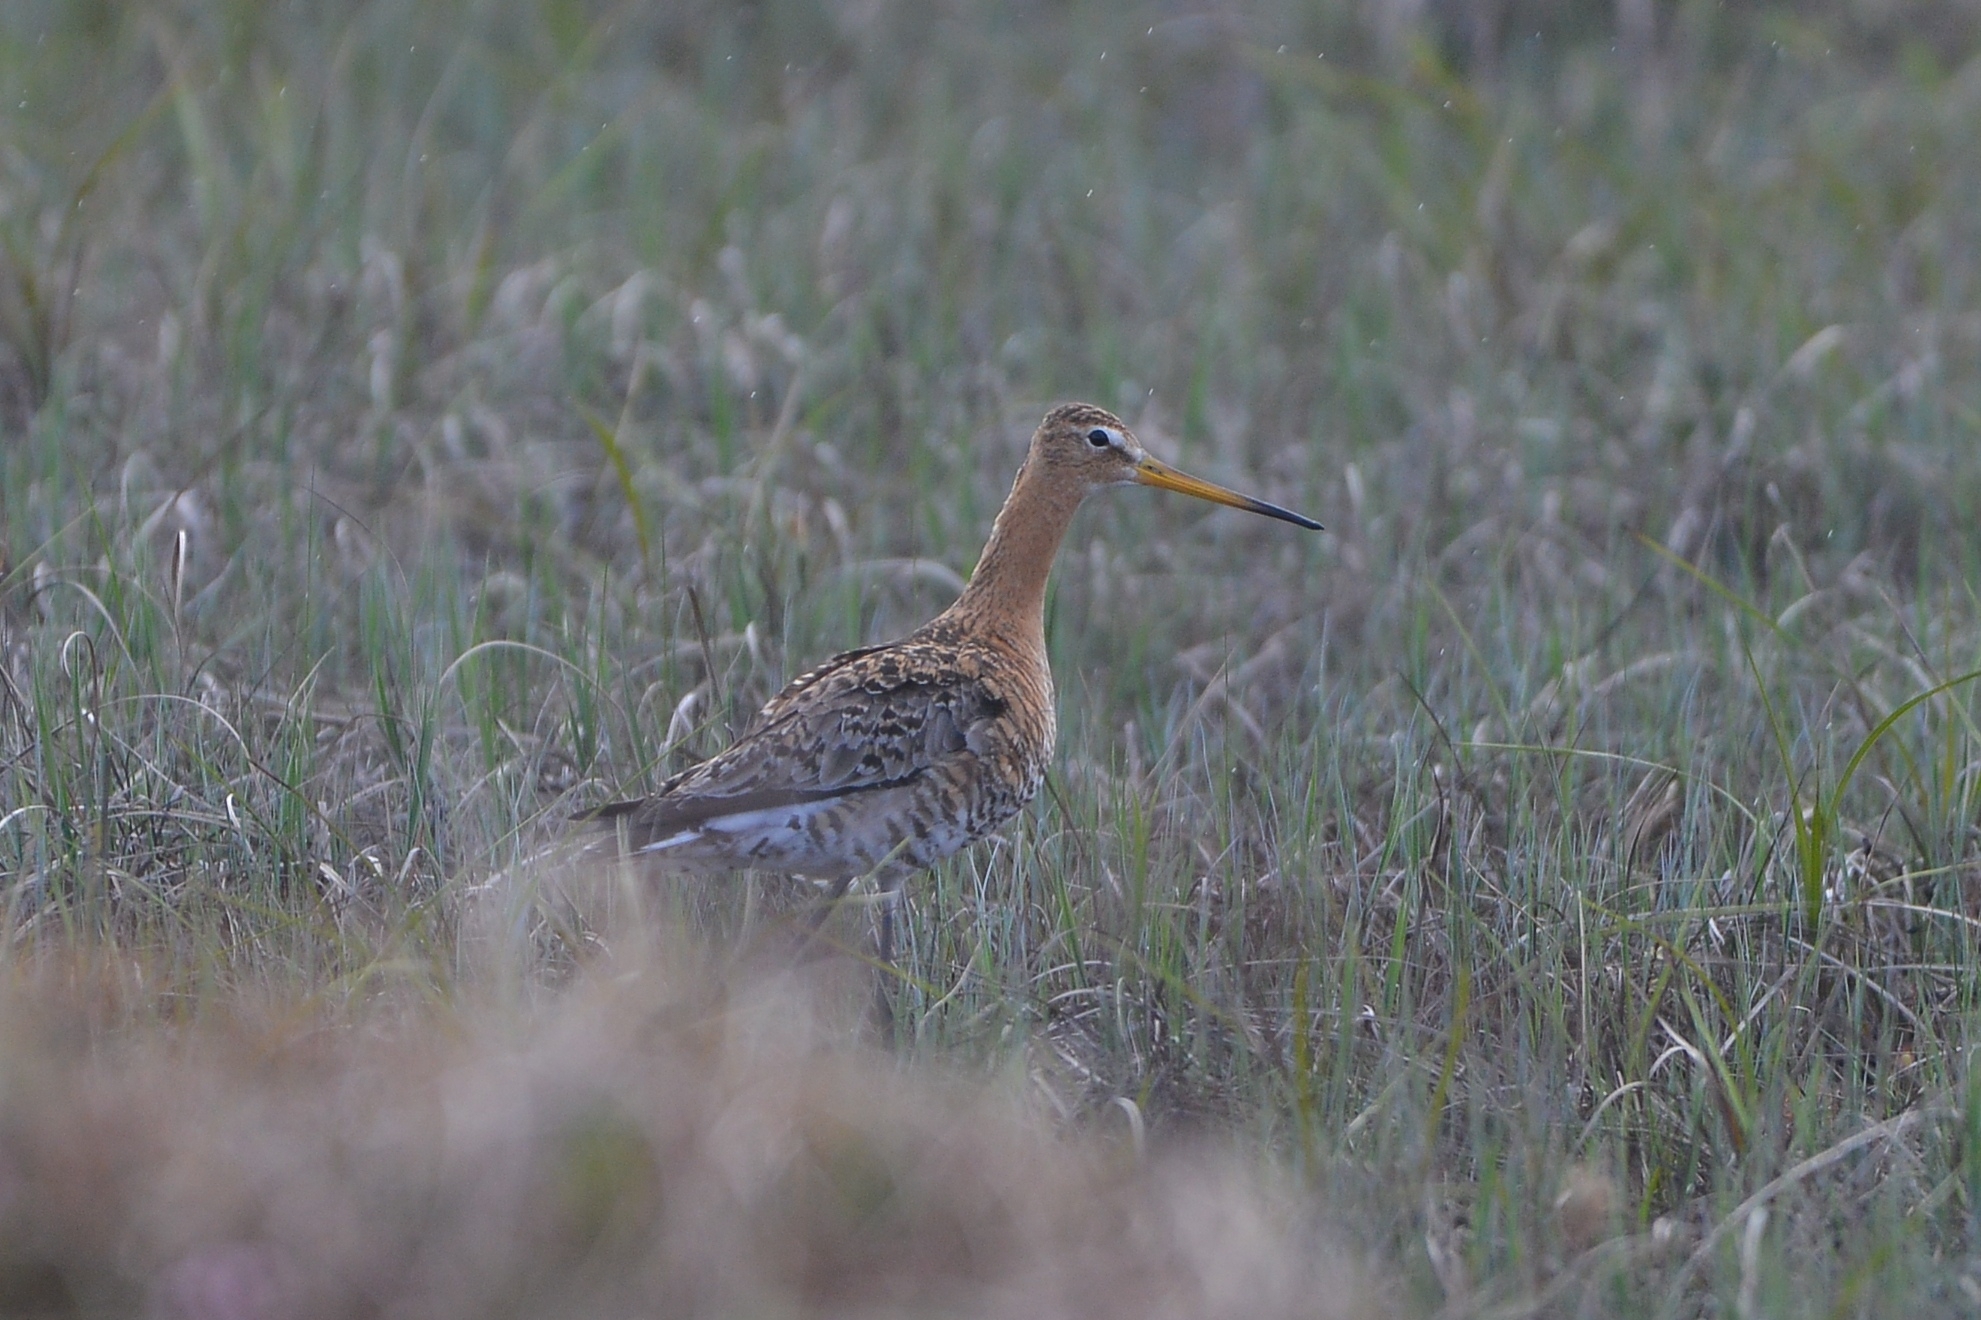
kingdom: Animalia
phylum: Chordata
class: Aves
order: Charadriiformes
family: Scolopacidae
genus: Limosa
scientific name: Limosa limosa
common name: Black-tailed godwit
